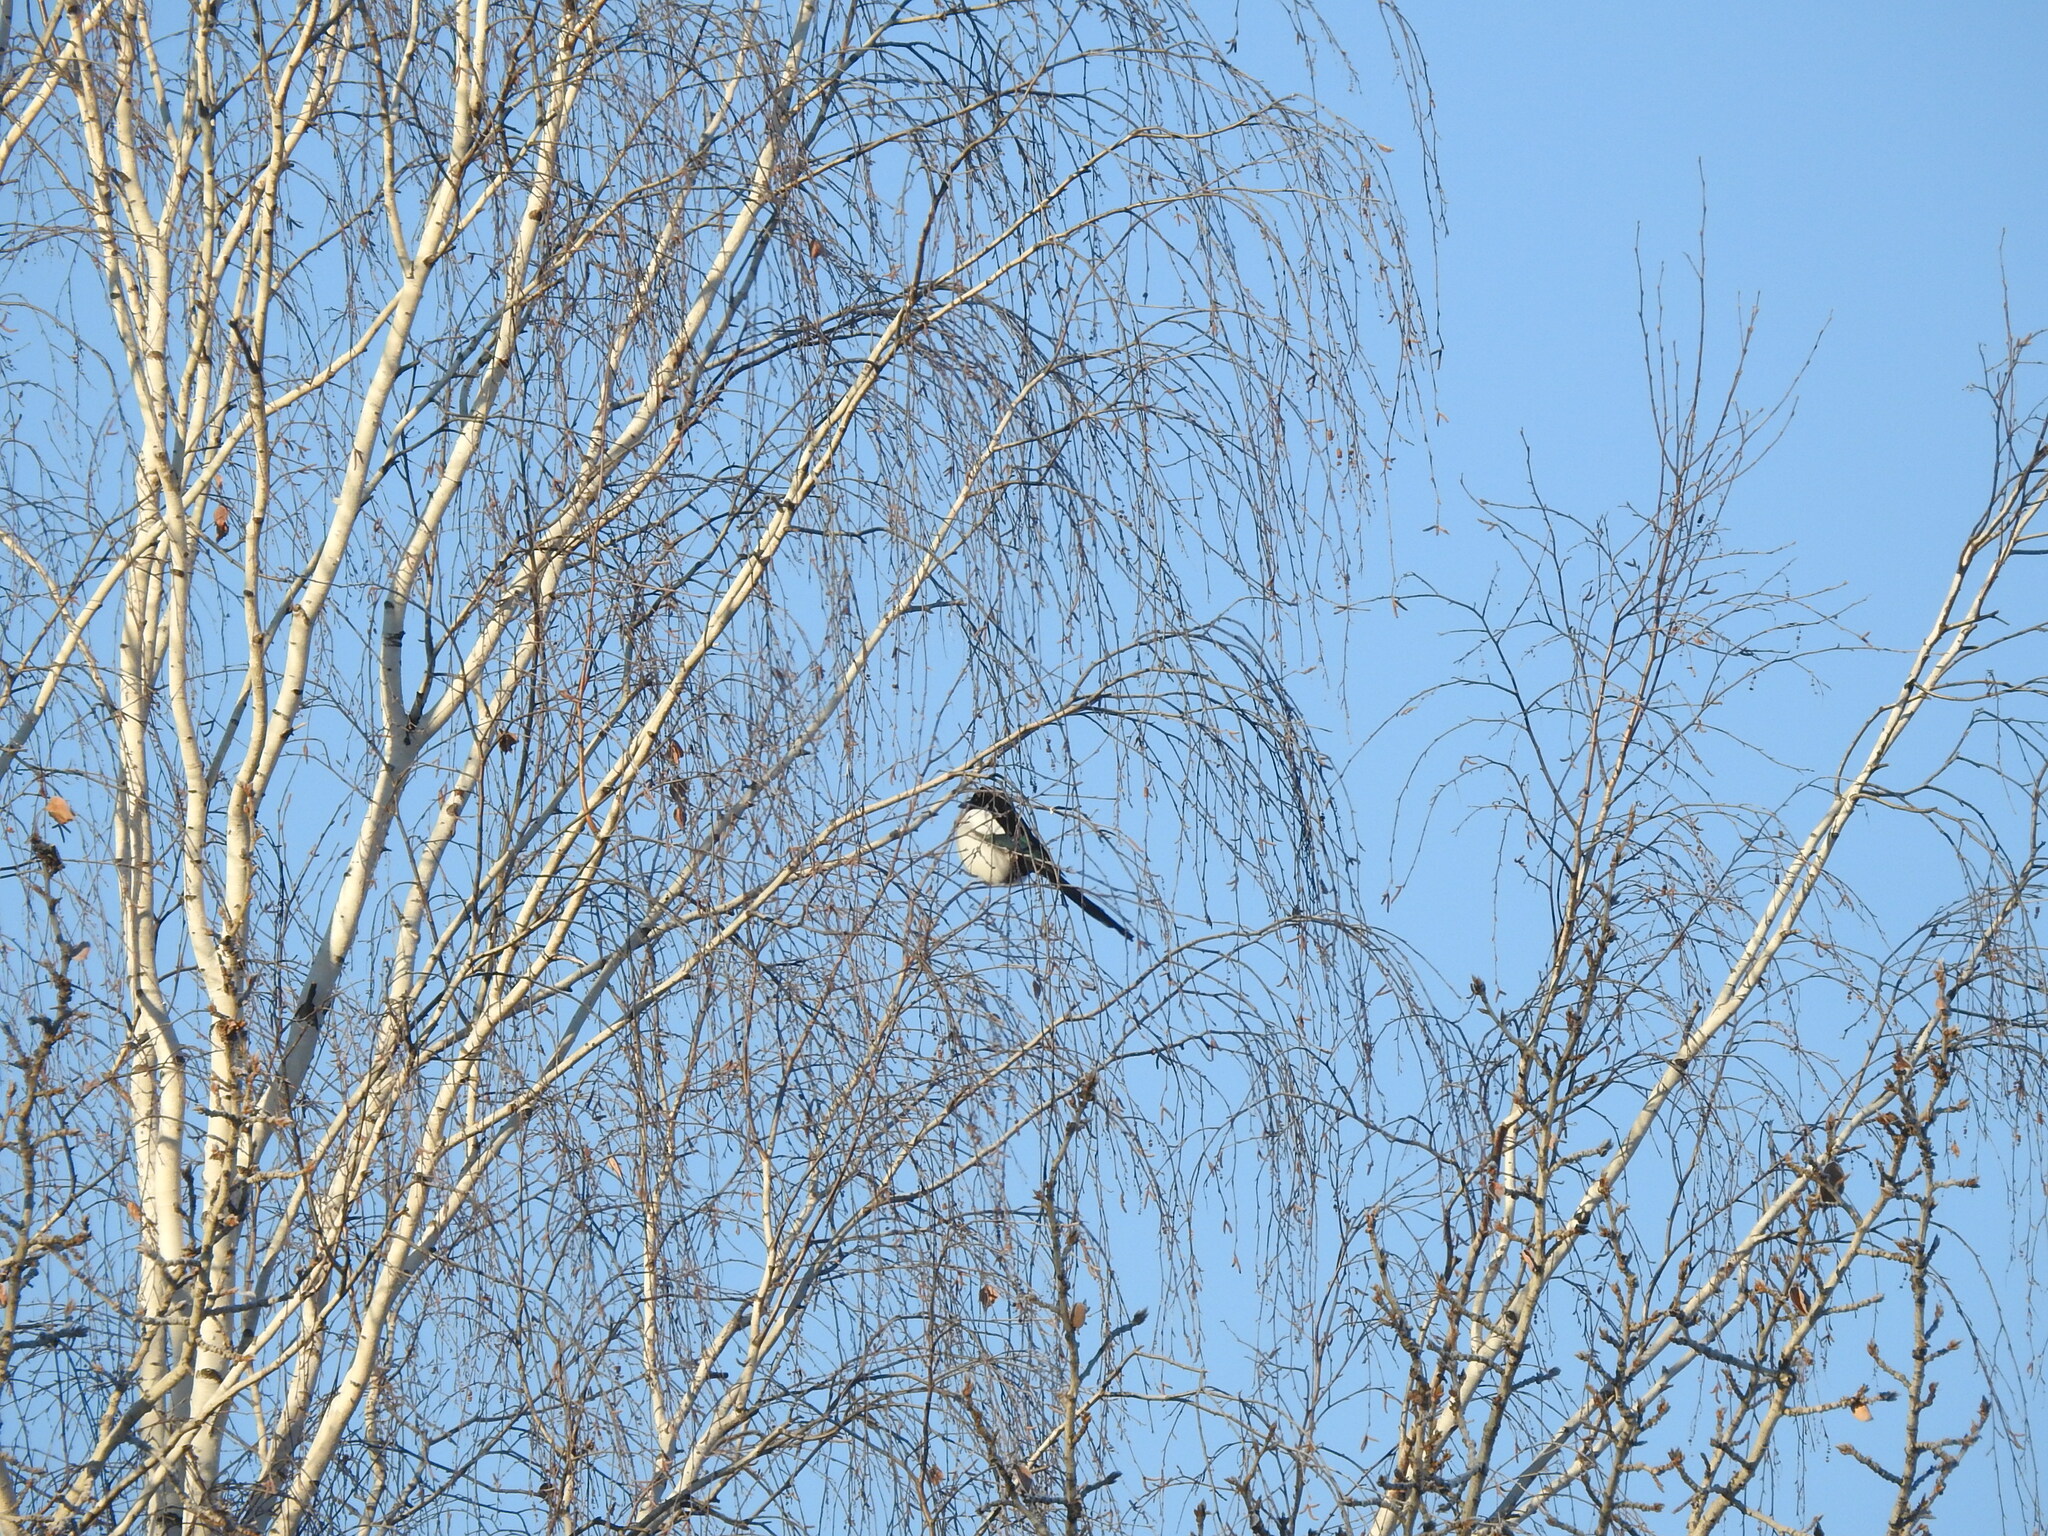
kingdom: Animalia
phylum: Chordata
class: Aves
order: Passeriformes
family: Corvidae
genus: Pica
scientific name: Pica pica
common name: Eurasian magpie
